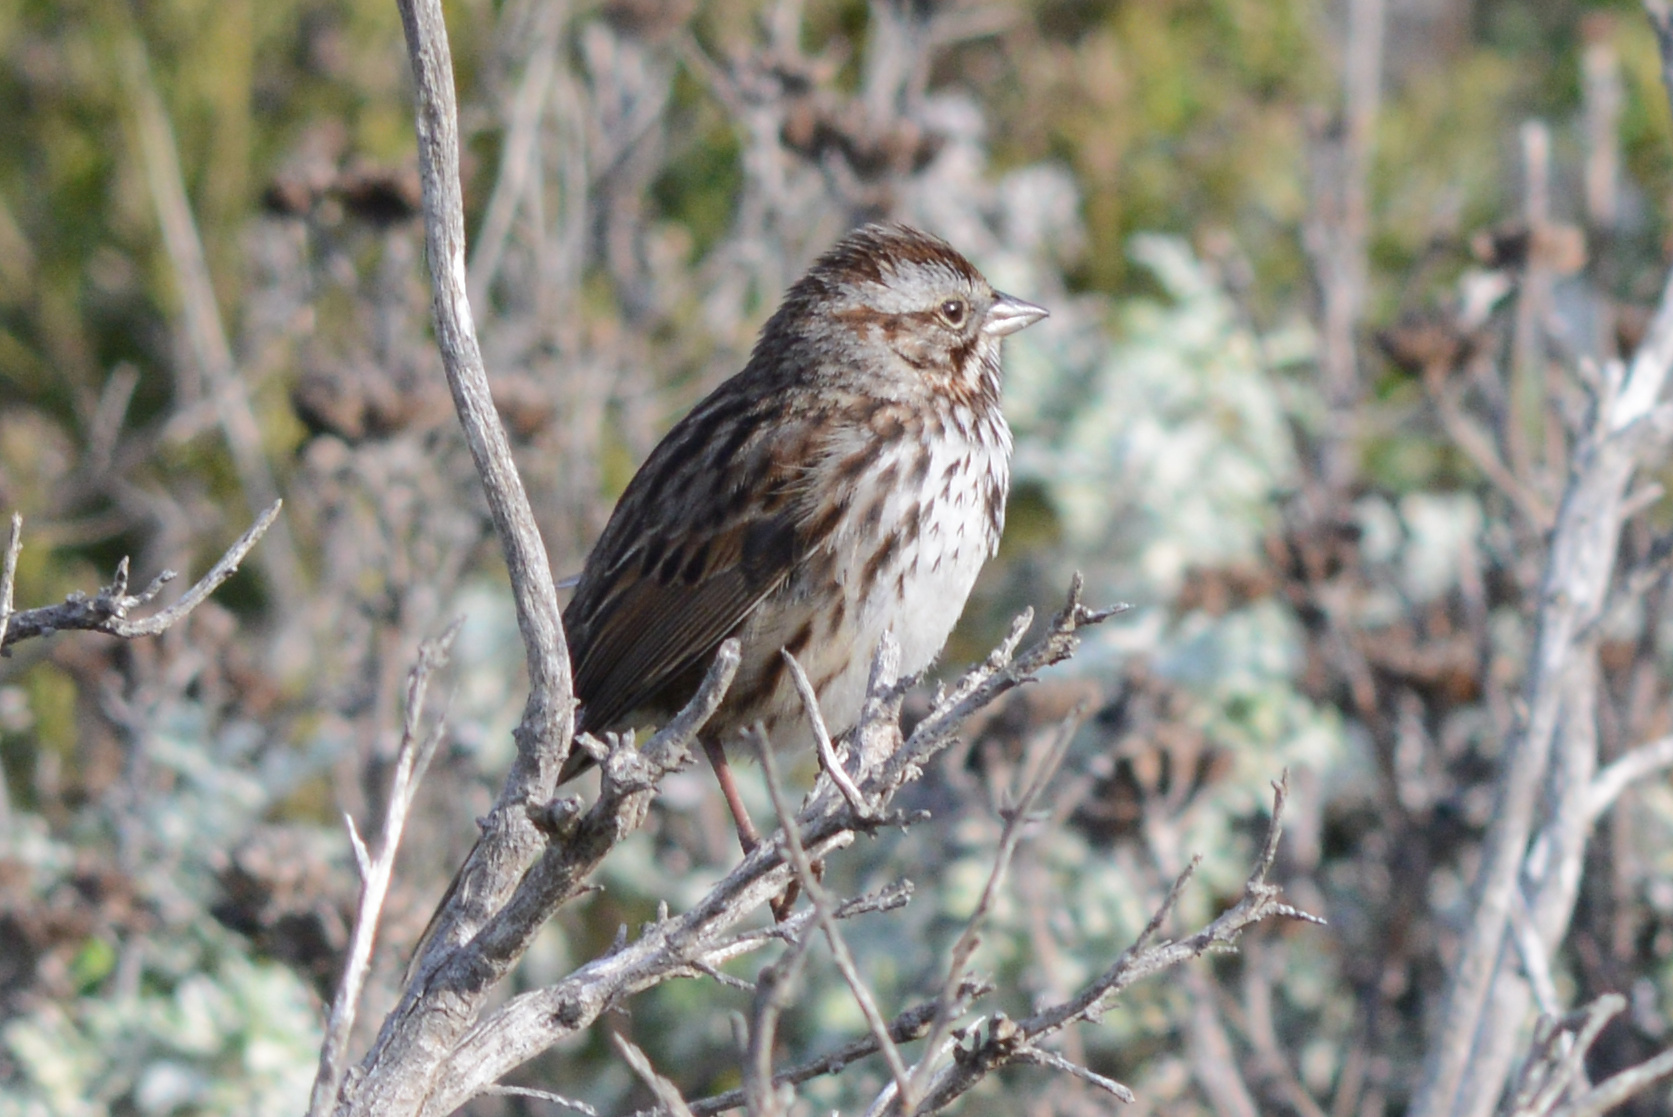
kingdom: Animalia
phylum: Chordata
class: Aves
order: Passeriformes
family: Passerellidae
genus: Melospiza
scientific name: Melospiza melodia
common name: Song sparrow
